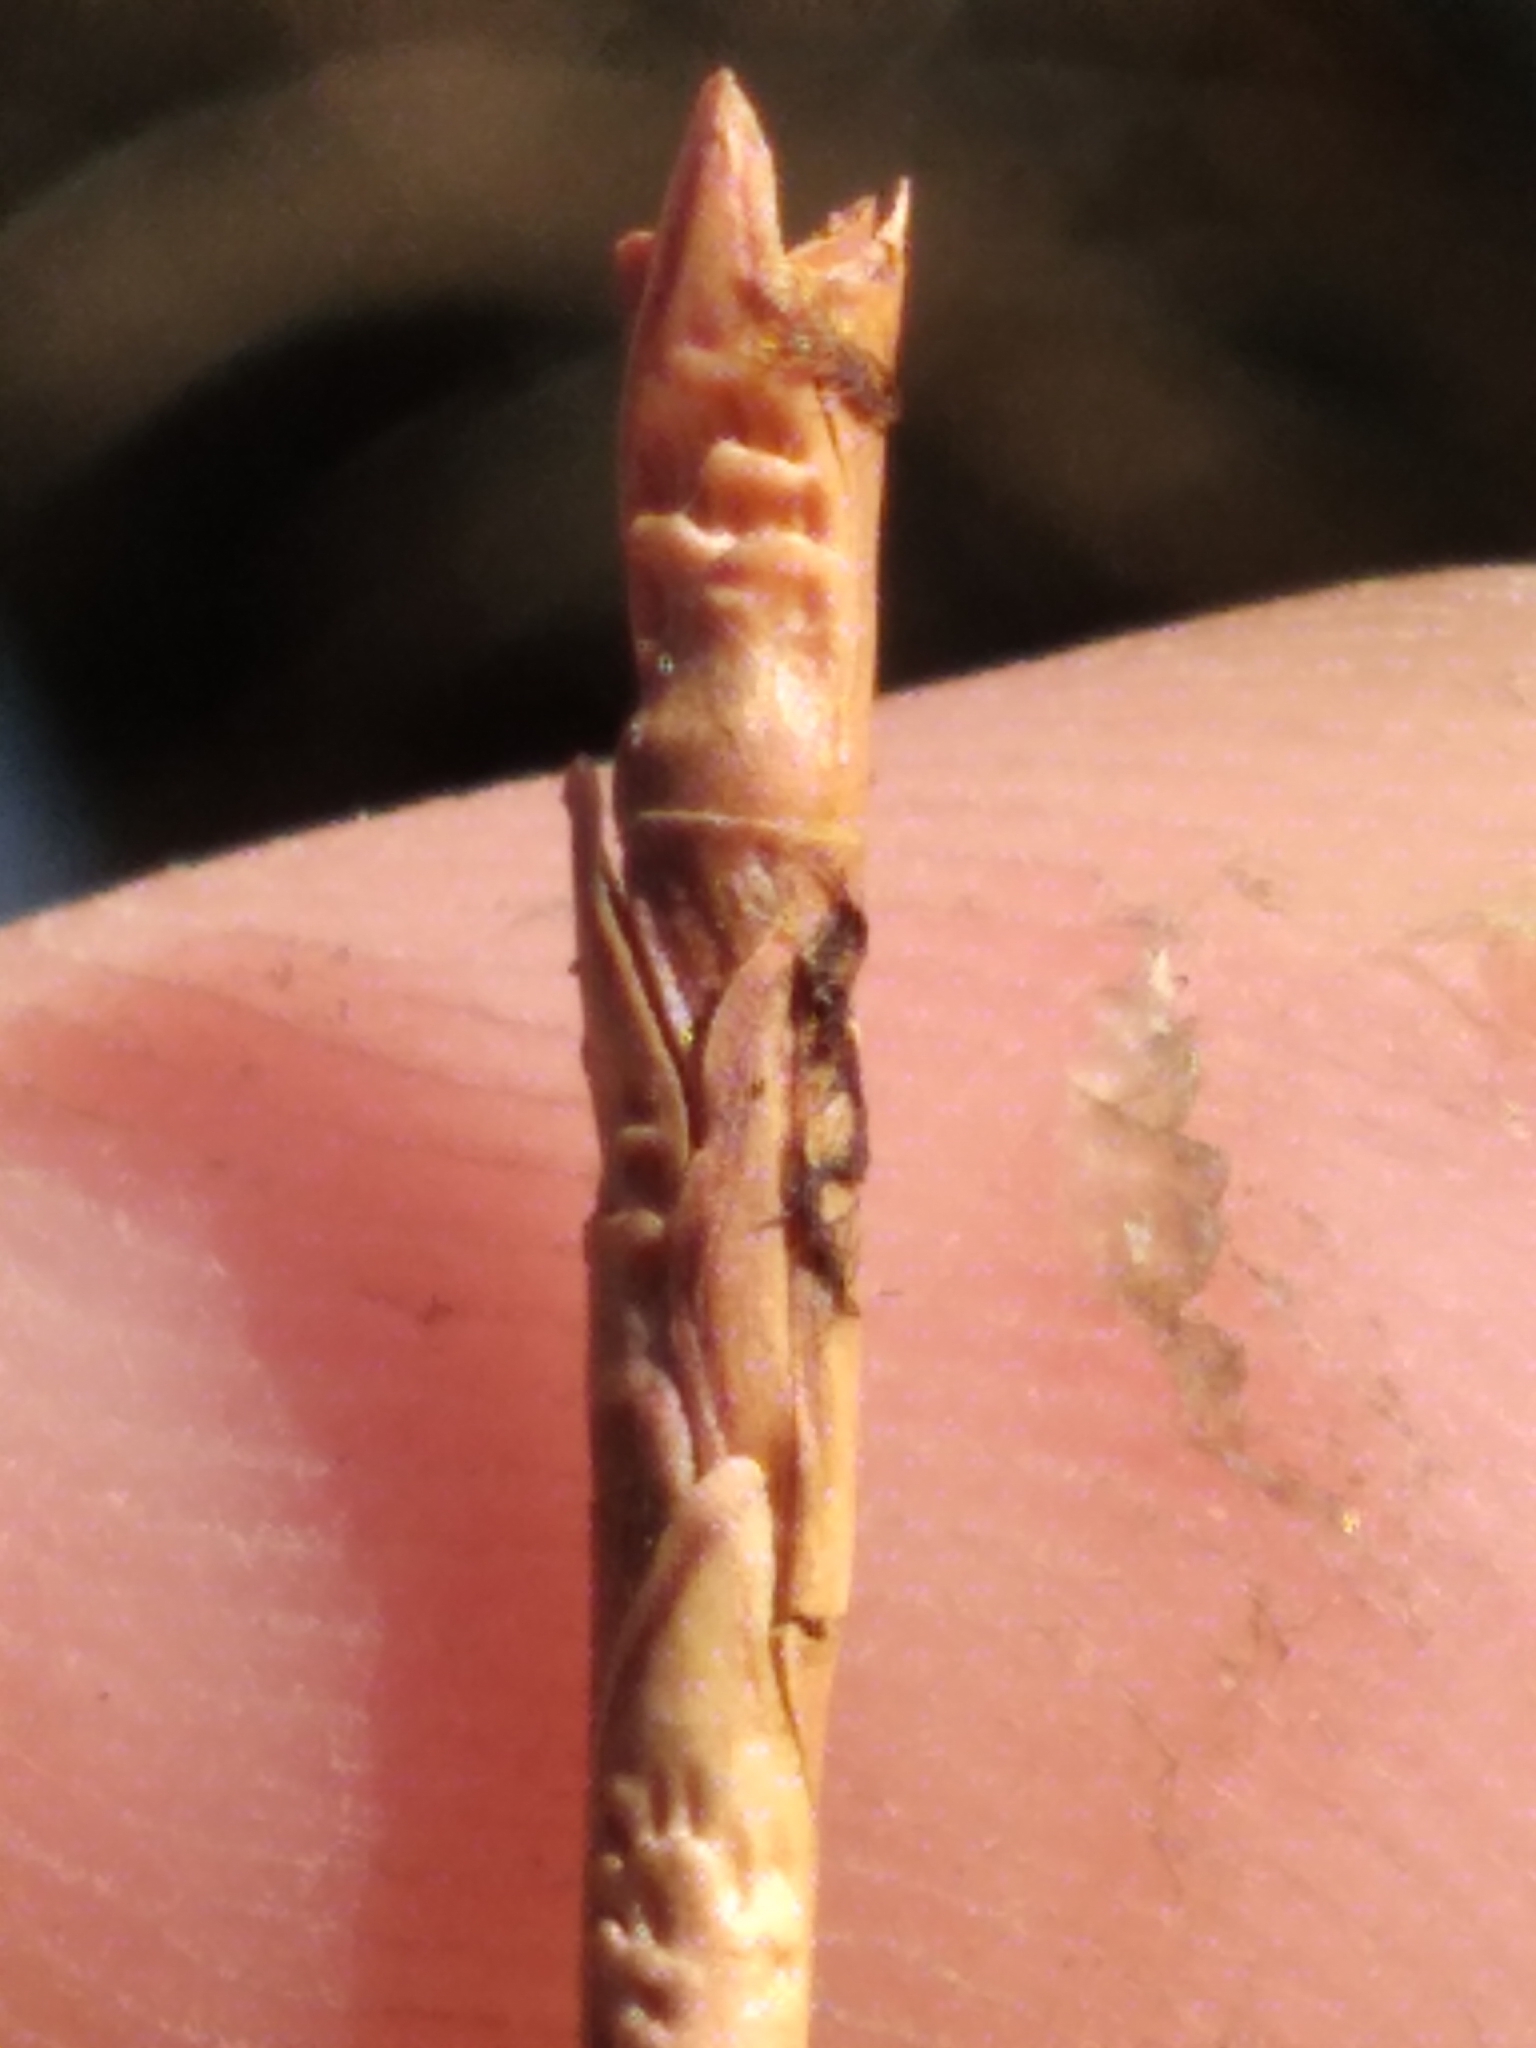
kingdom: Plantae
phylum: Tracheophyta
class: Liliopsida
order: Poales
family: Poaceae
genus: Rottboellia
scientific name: Rottboellia rugosa
